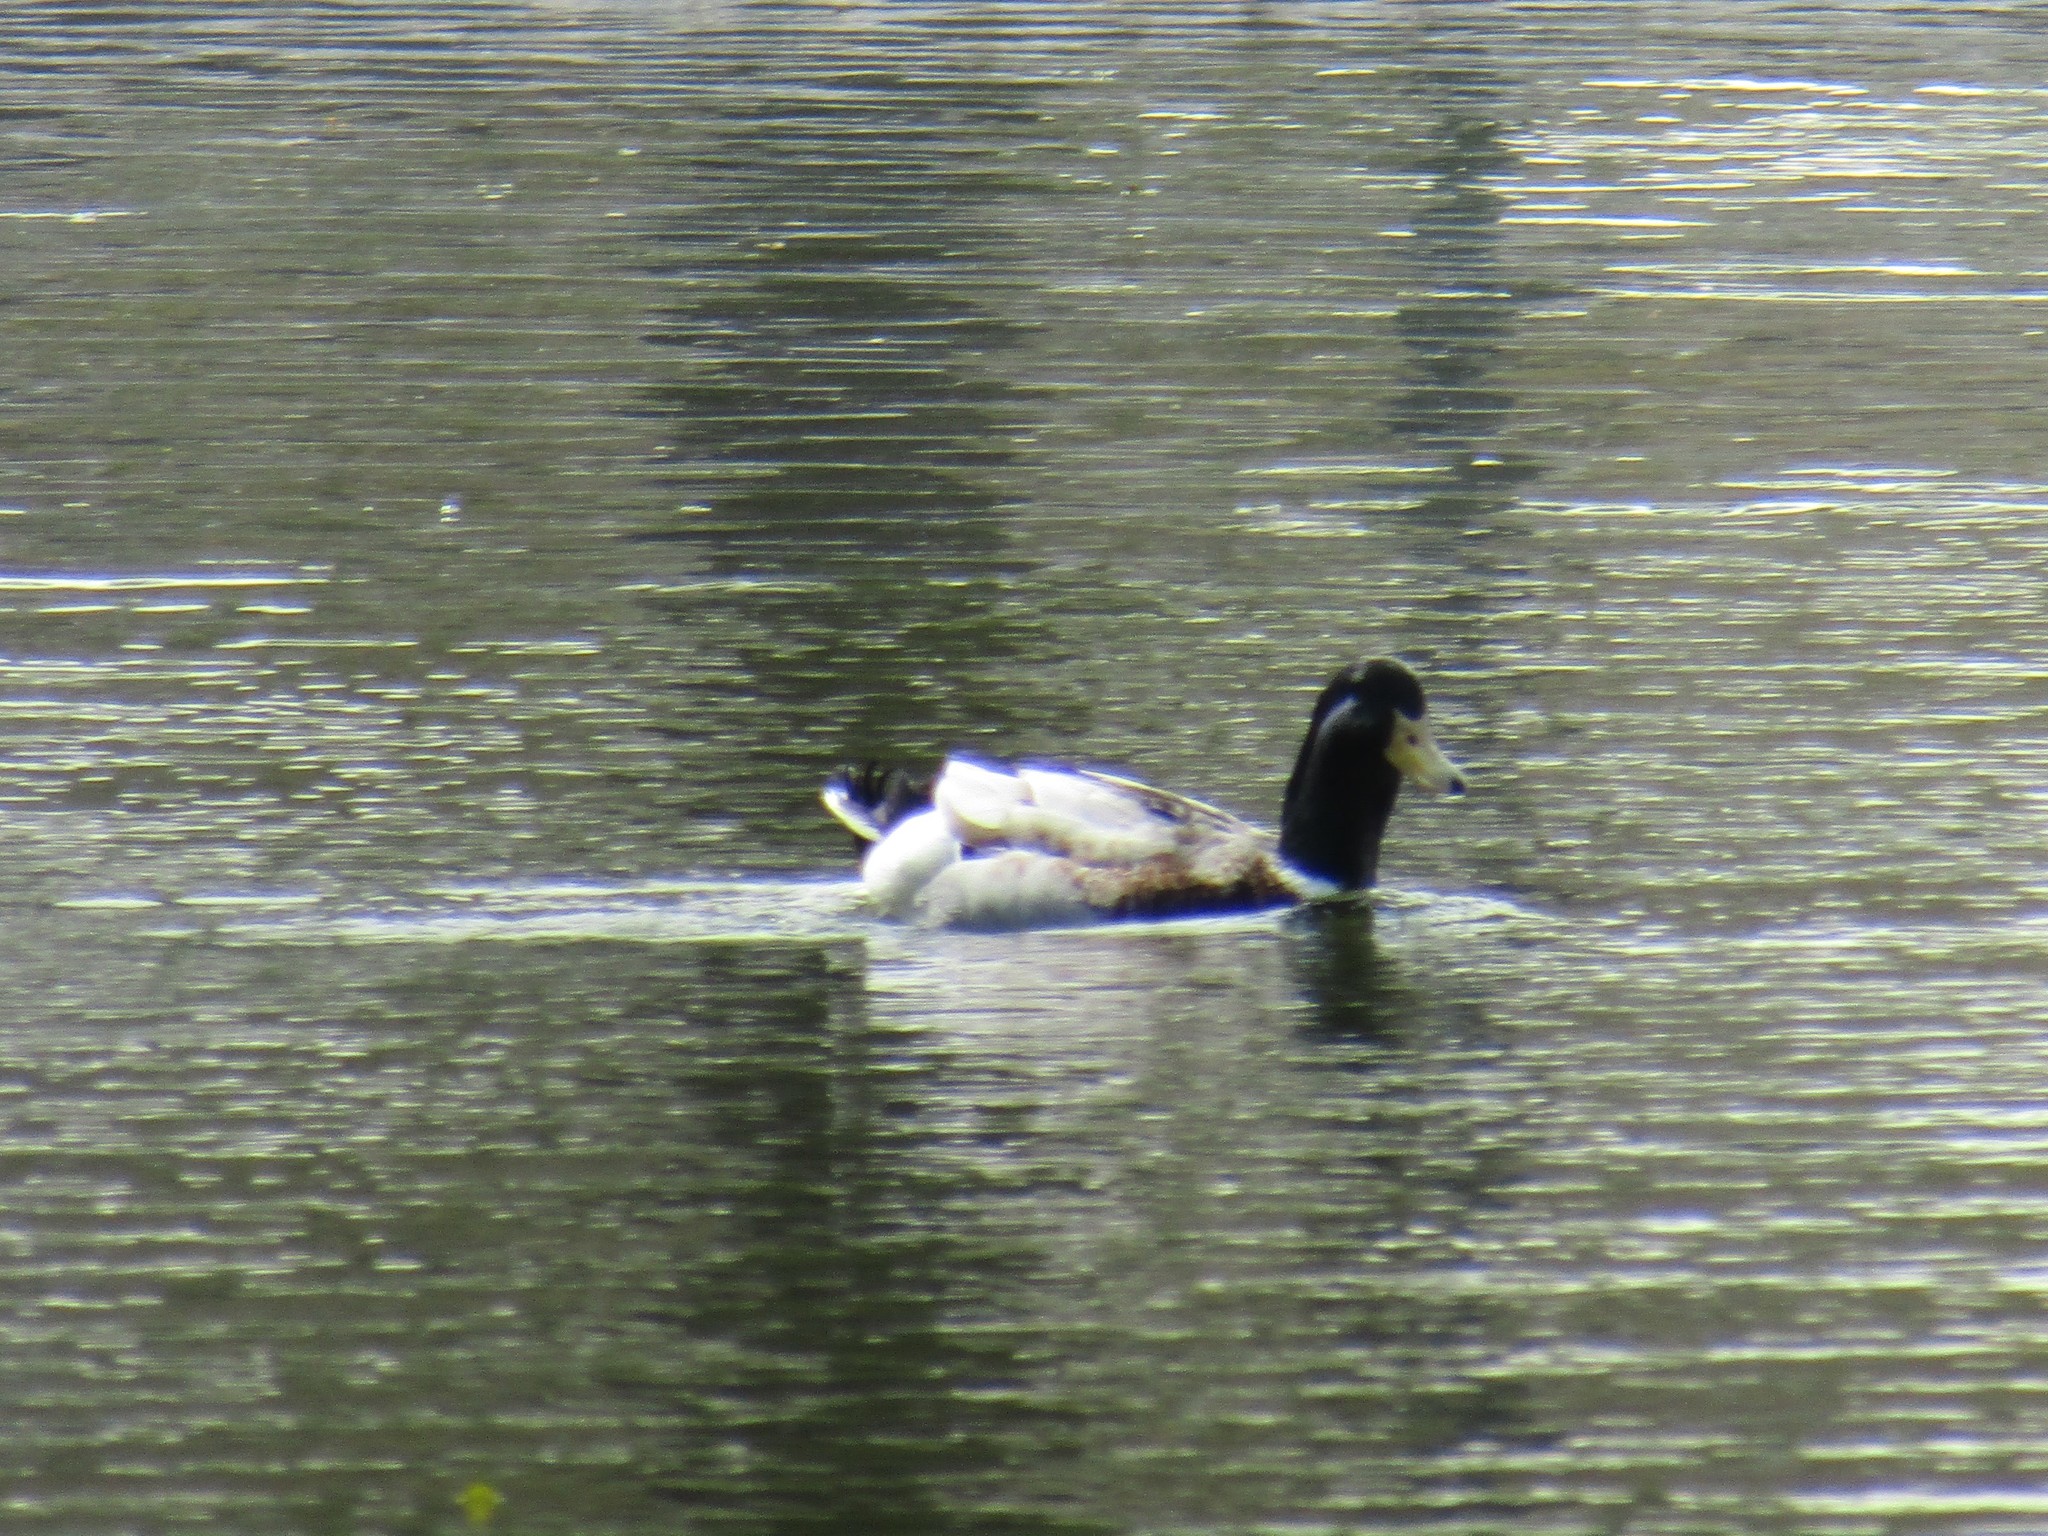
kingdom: Animalia
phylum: Chordata
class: Aves
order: Anseriformes
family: Anatidae
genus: Anas
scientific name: Anas platyrhynchos
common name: Mallard
